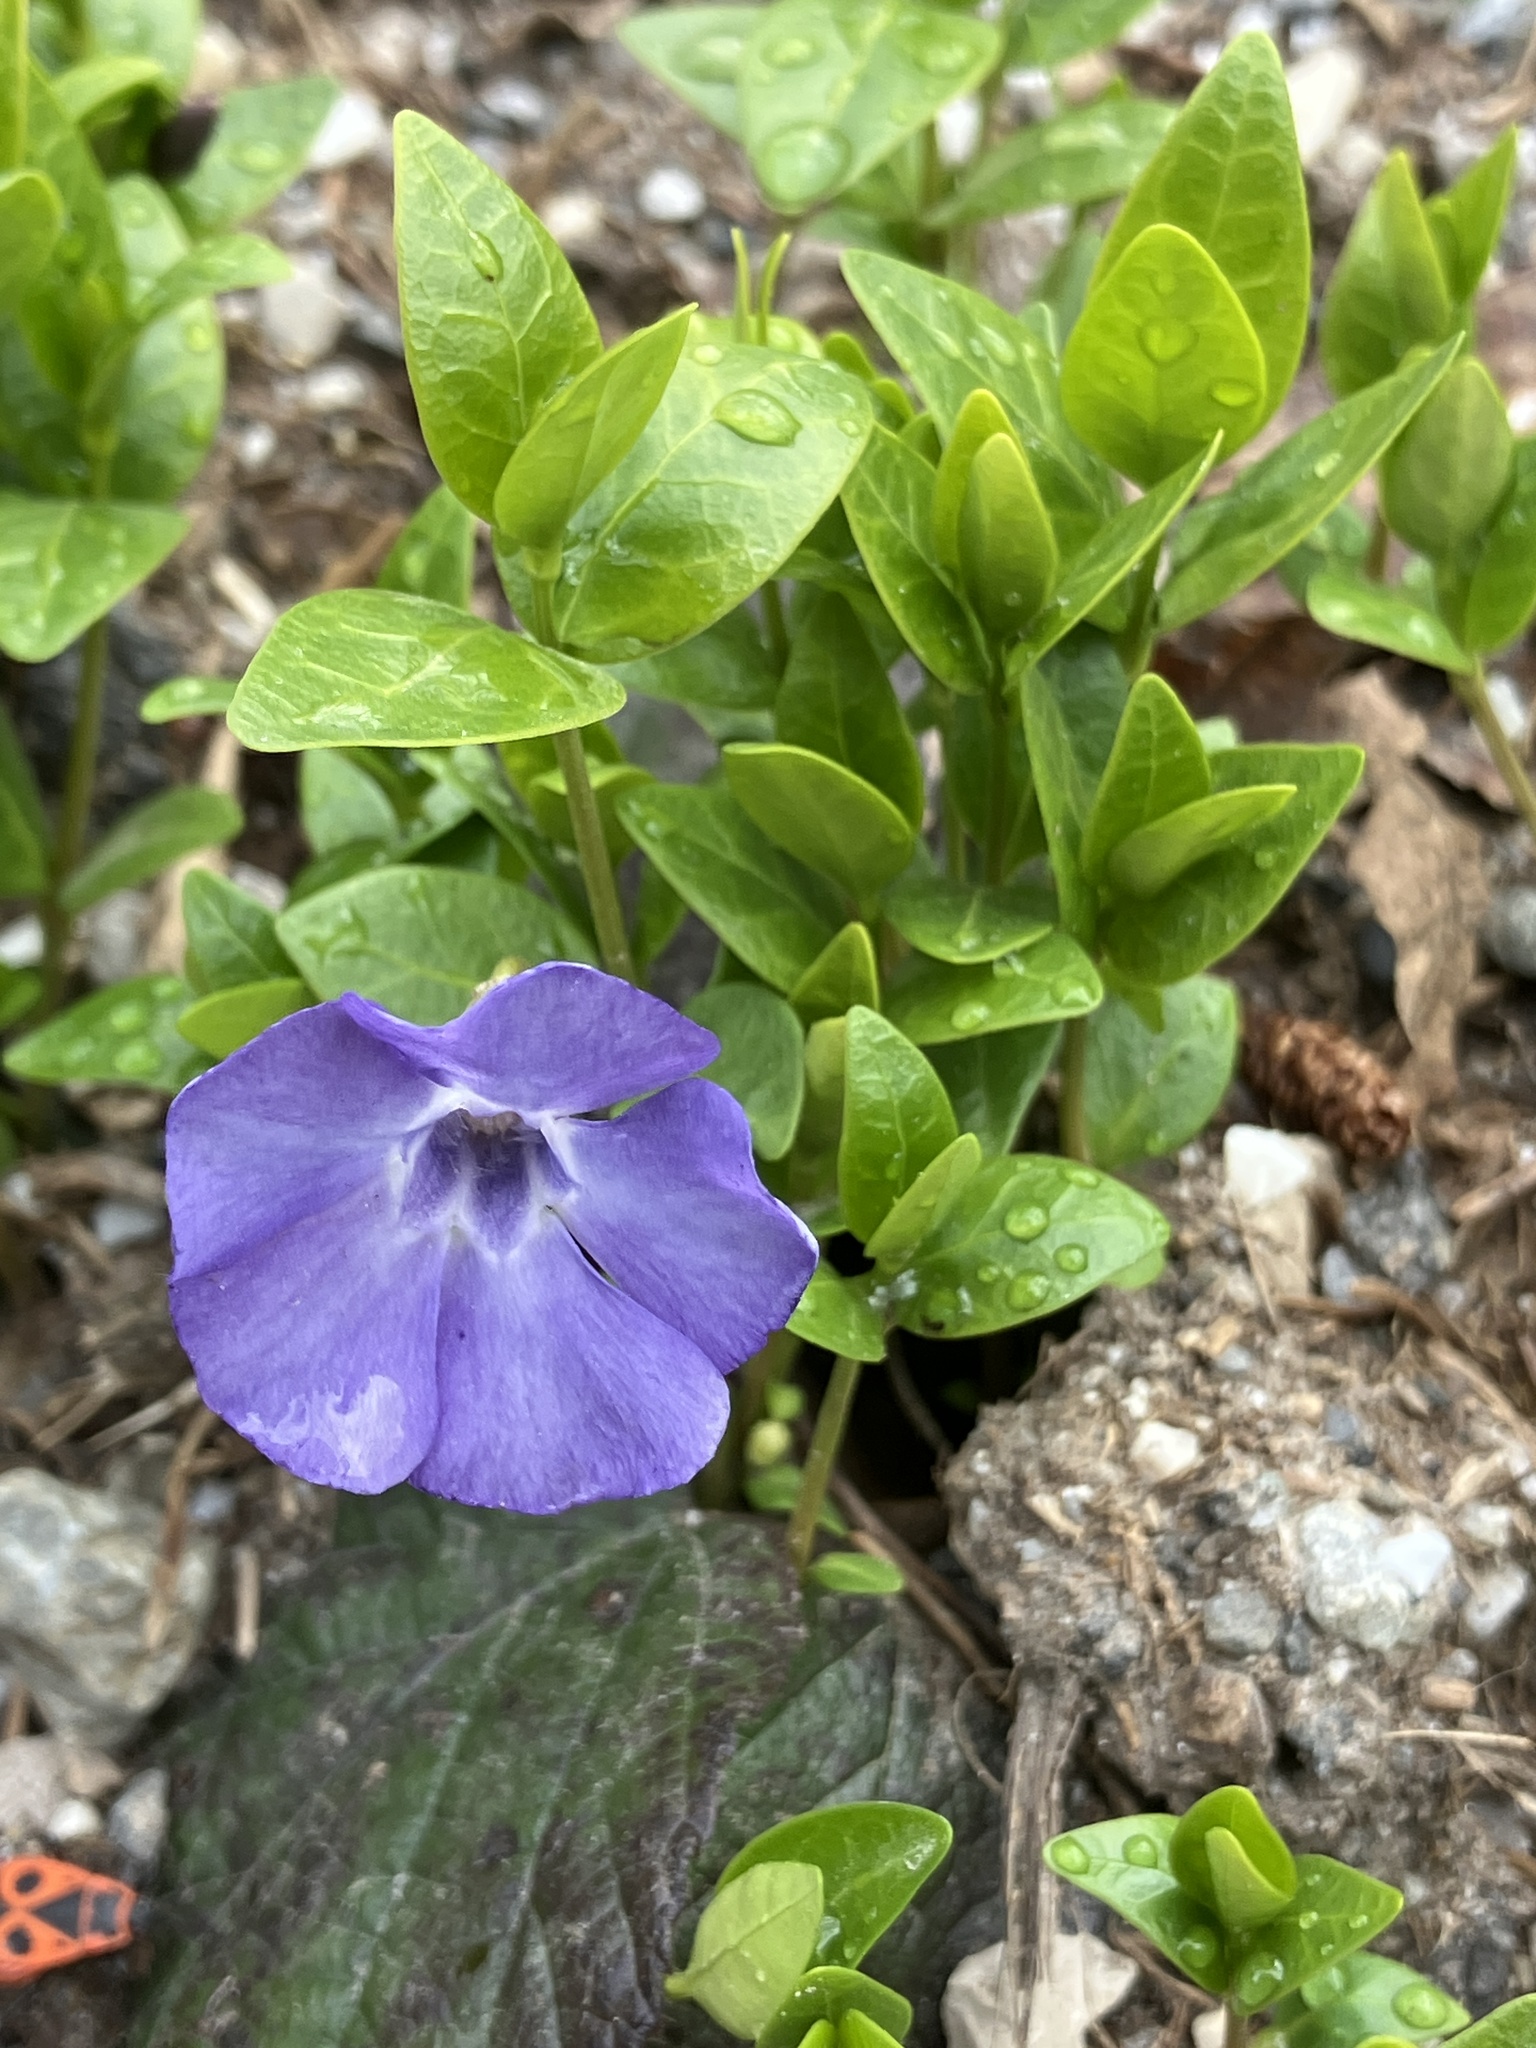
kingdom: Plantae
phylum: Tracheophyta
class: Magnoliopsida
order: Gentianales
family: Apocynaceae
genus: Vinca
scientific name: Vinca minor
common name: Lesser periwinkle
